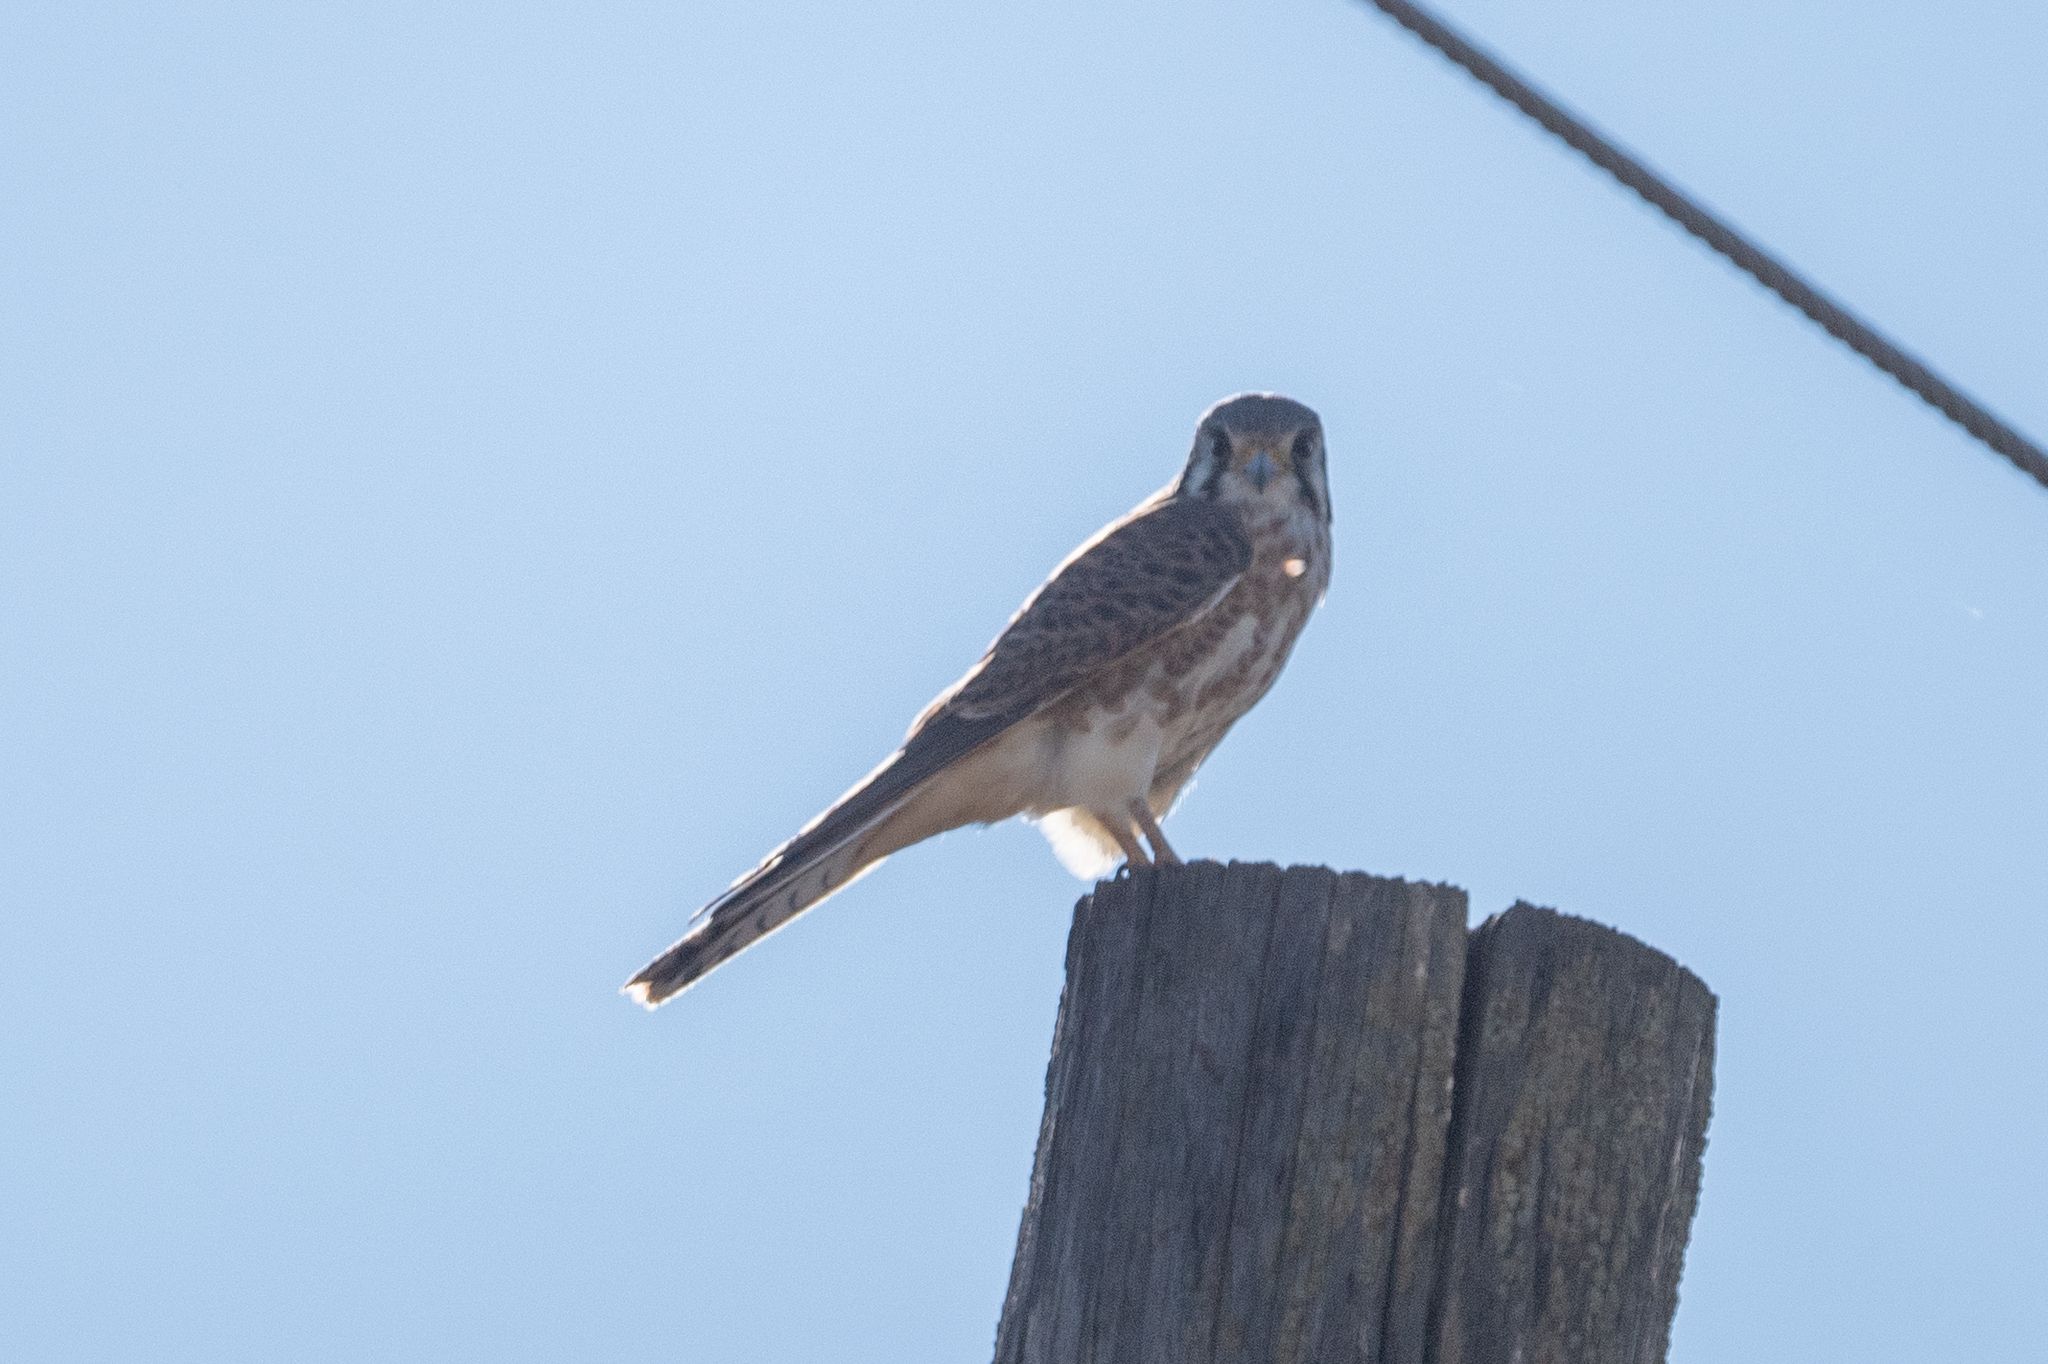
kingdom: Animalia
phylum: Chordata
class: Aves
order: Falconiformes
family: Falconidae
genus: Falco
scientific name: Falco sparverius
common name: American kestrel
